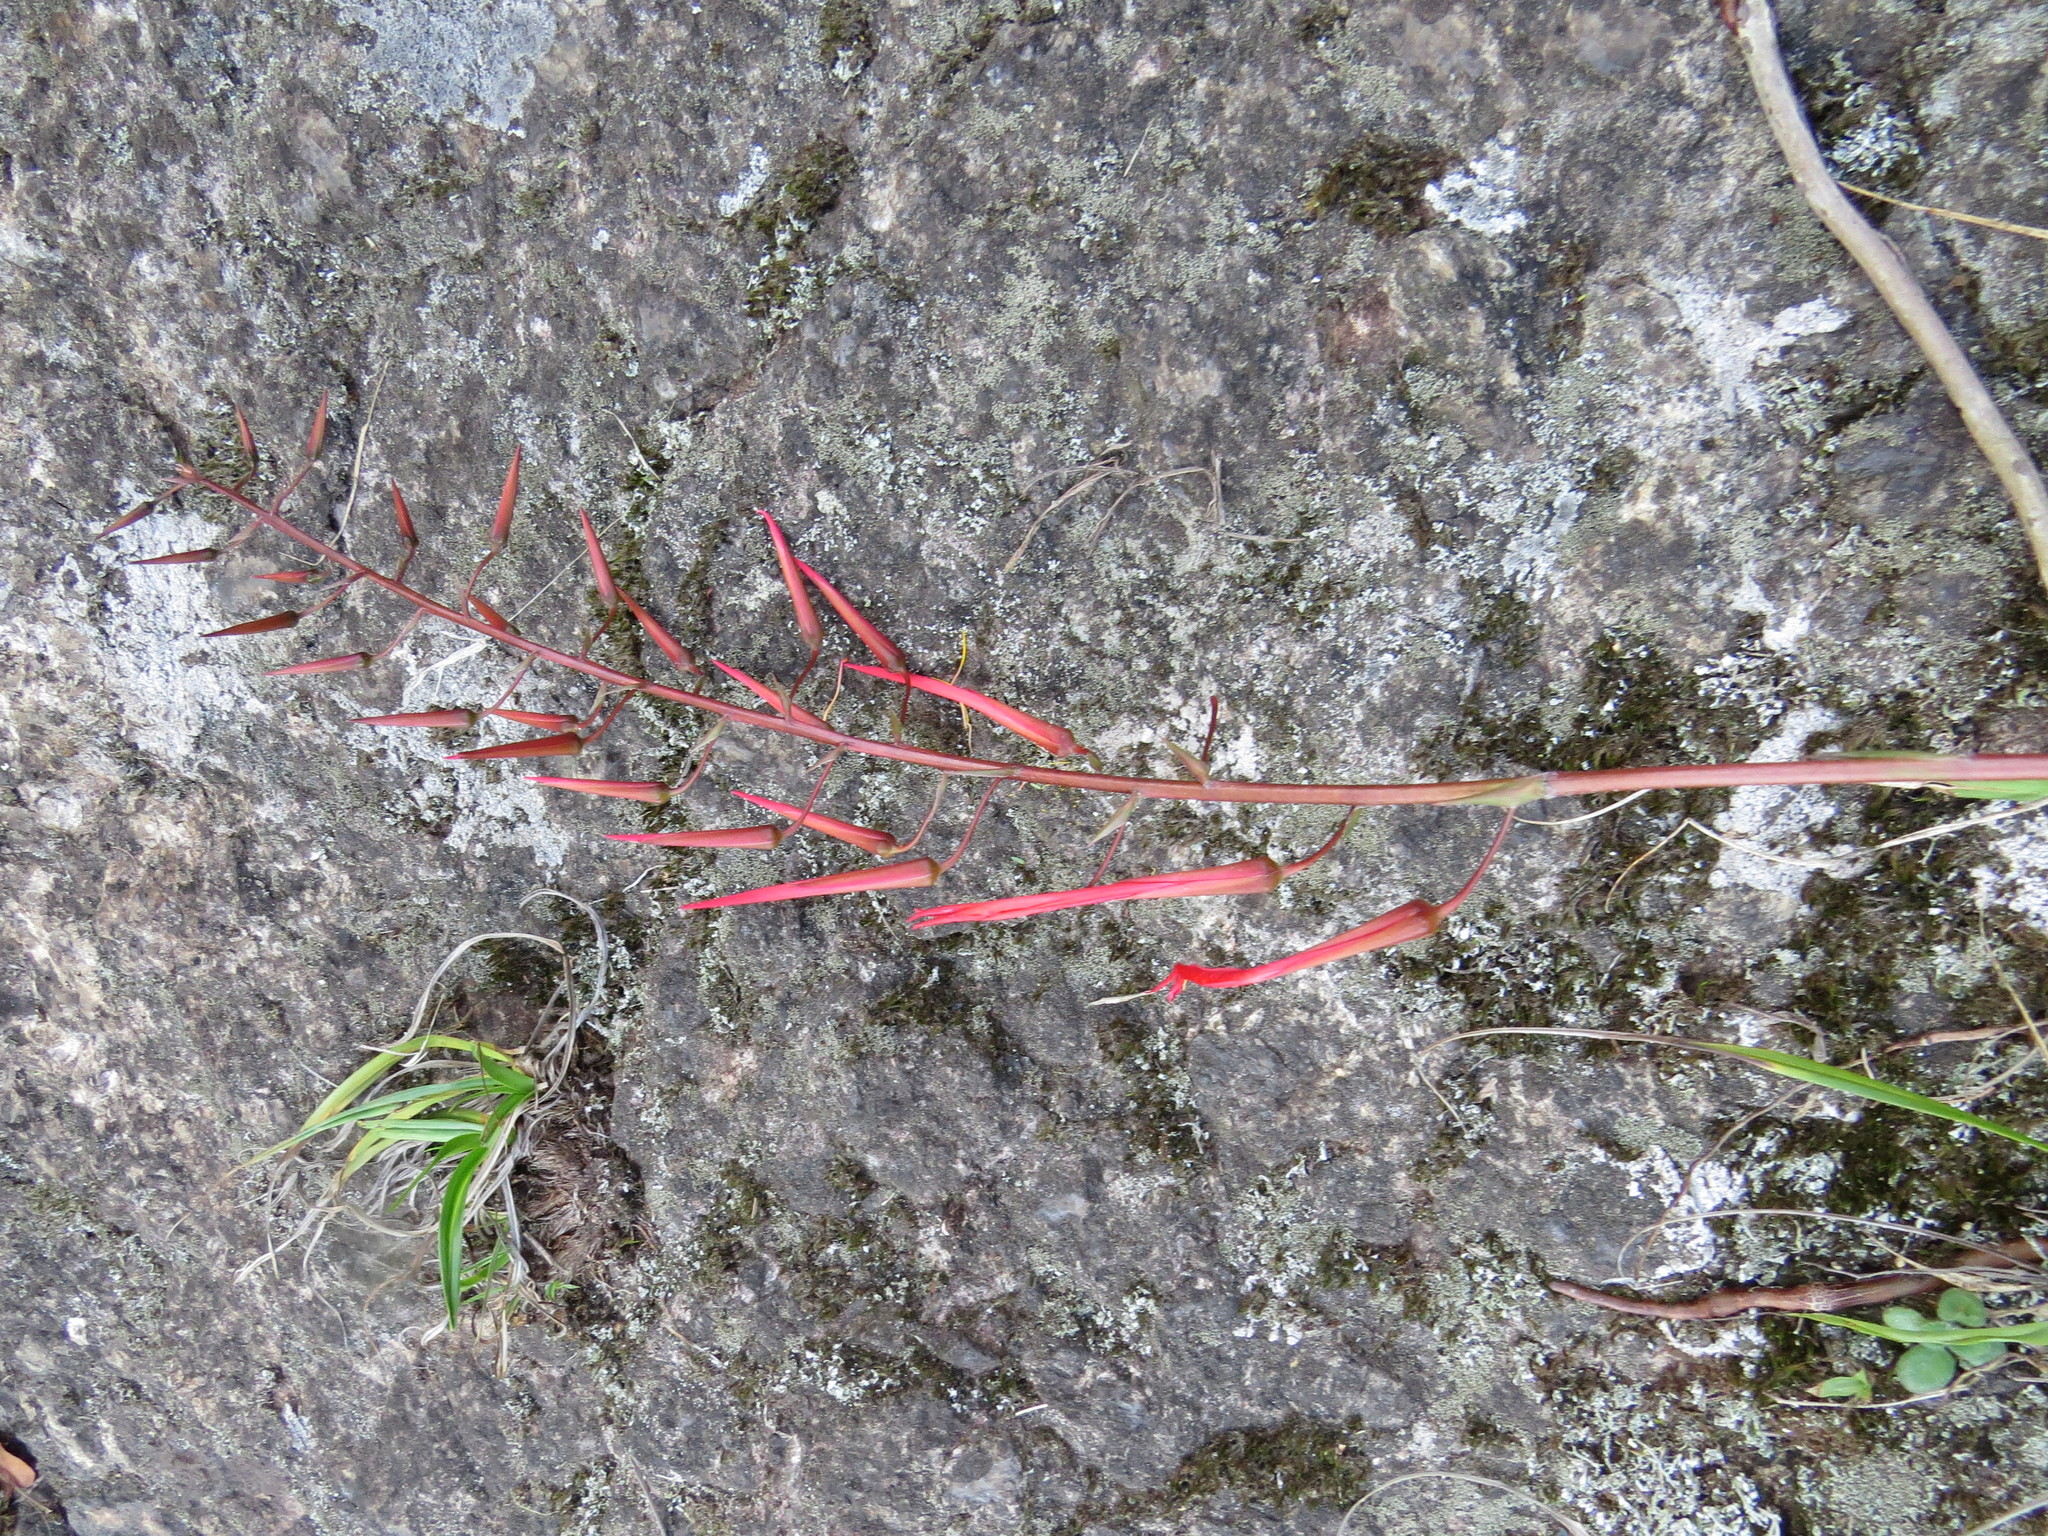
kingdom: Plantae
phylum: Tracheophyta
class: Liliopsida
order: Poales
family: Bromeliaceae
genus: Pitcairnia
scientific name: Pitcairnia staminea
